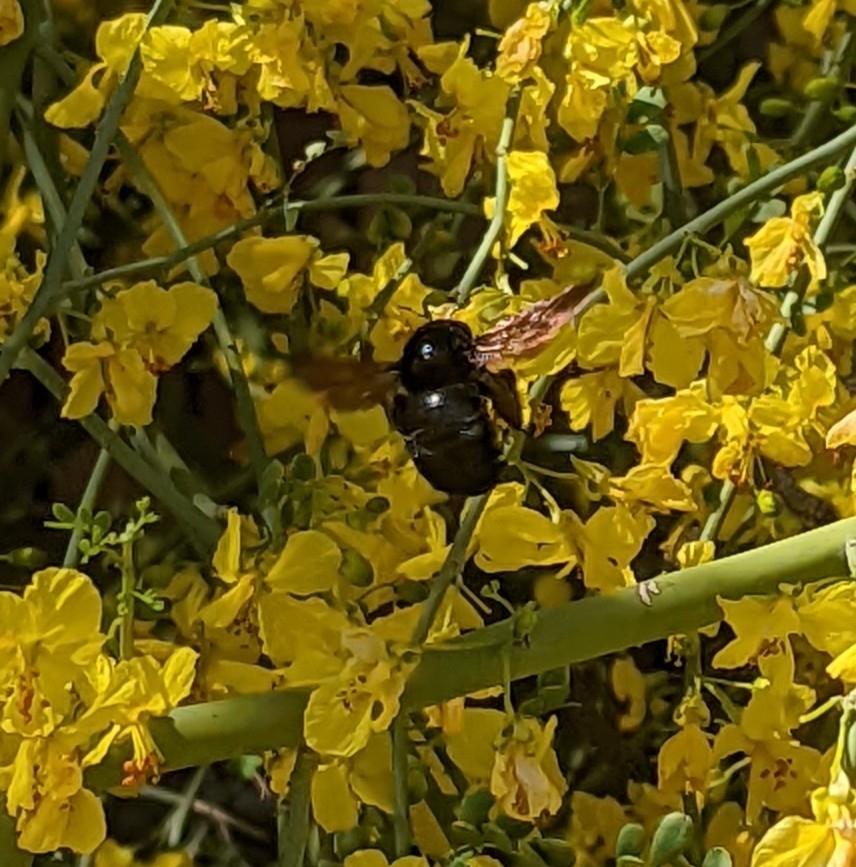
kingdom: Animalia
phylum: Arthropoda
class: Insecta
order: Hymenoptera
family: Apidae
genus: Xylocopa
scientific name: Xylocopa sonorina
